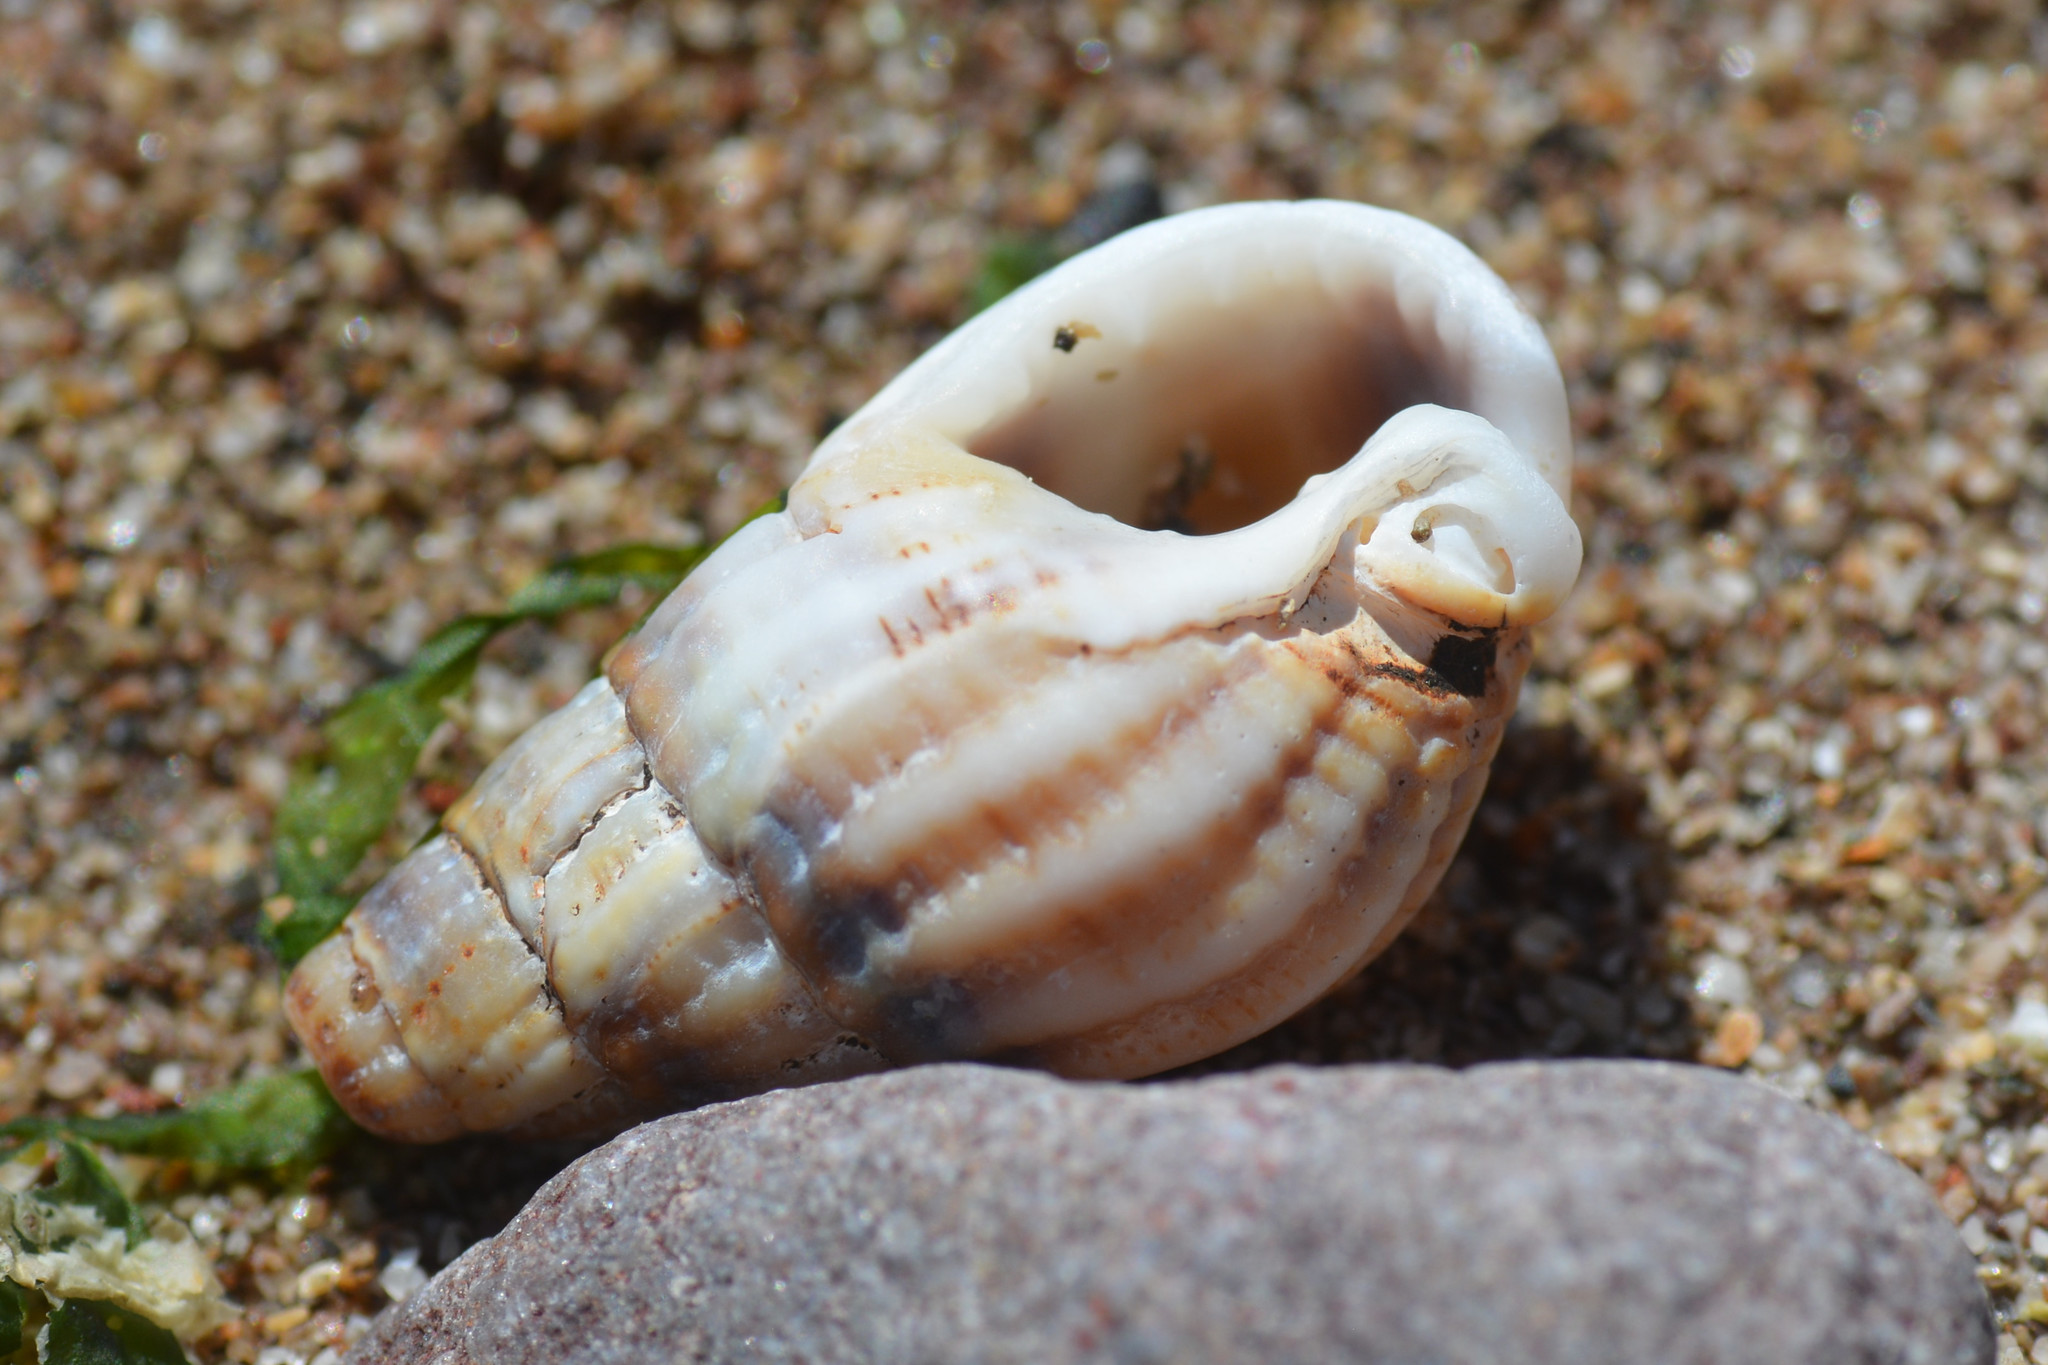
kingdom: Animalia
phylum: Mollusca
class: Gastropoda
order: Neogastropoda
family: Nassariidae
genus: Tritia
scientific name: Tritia reticulata
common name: Netted dog whelk
